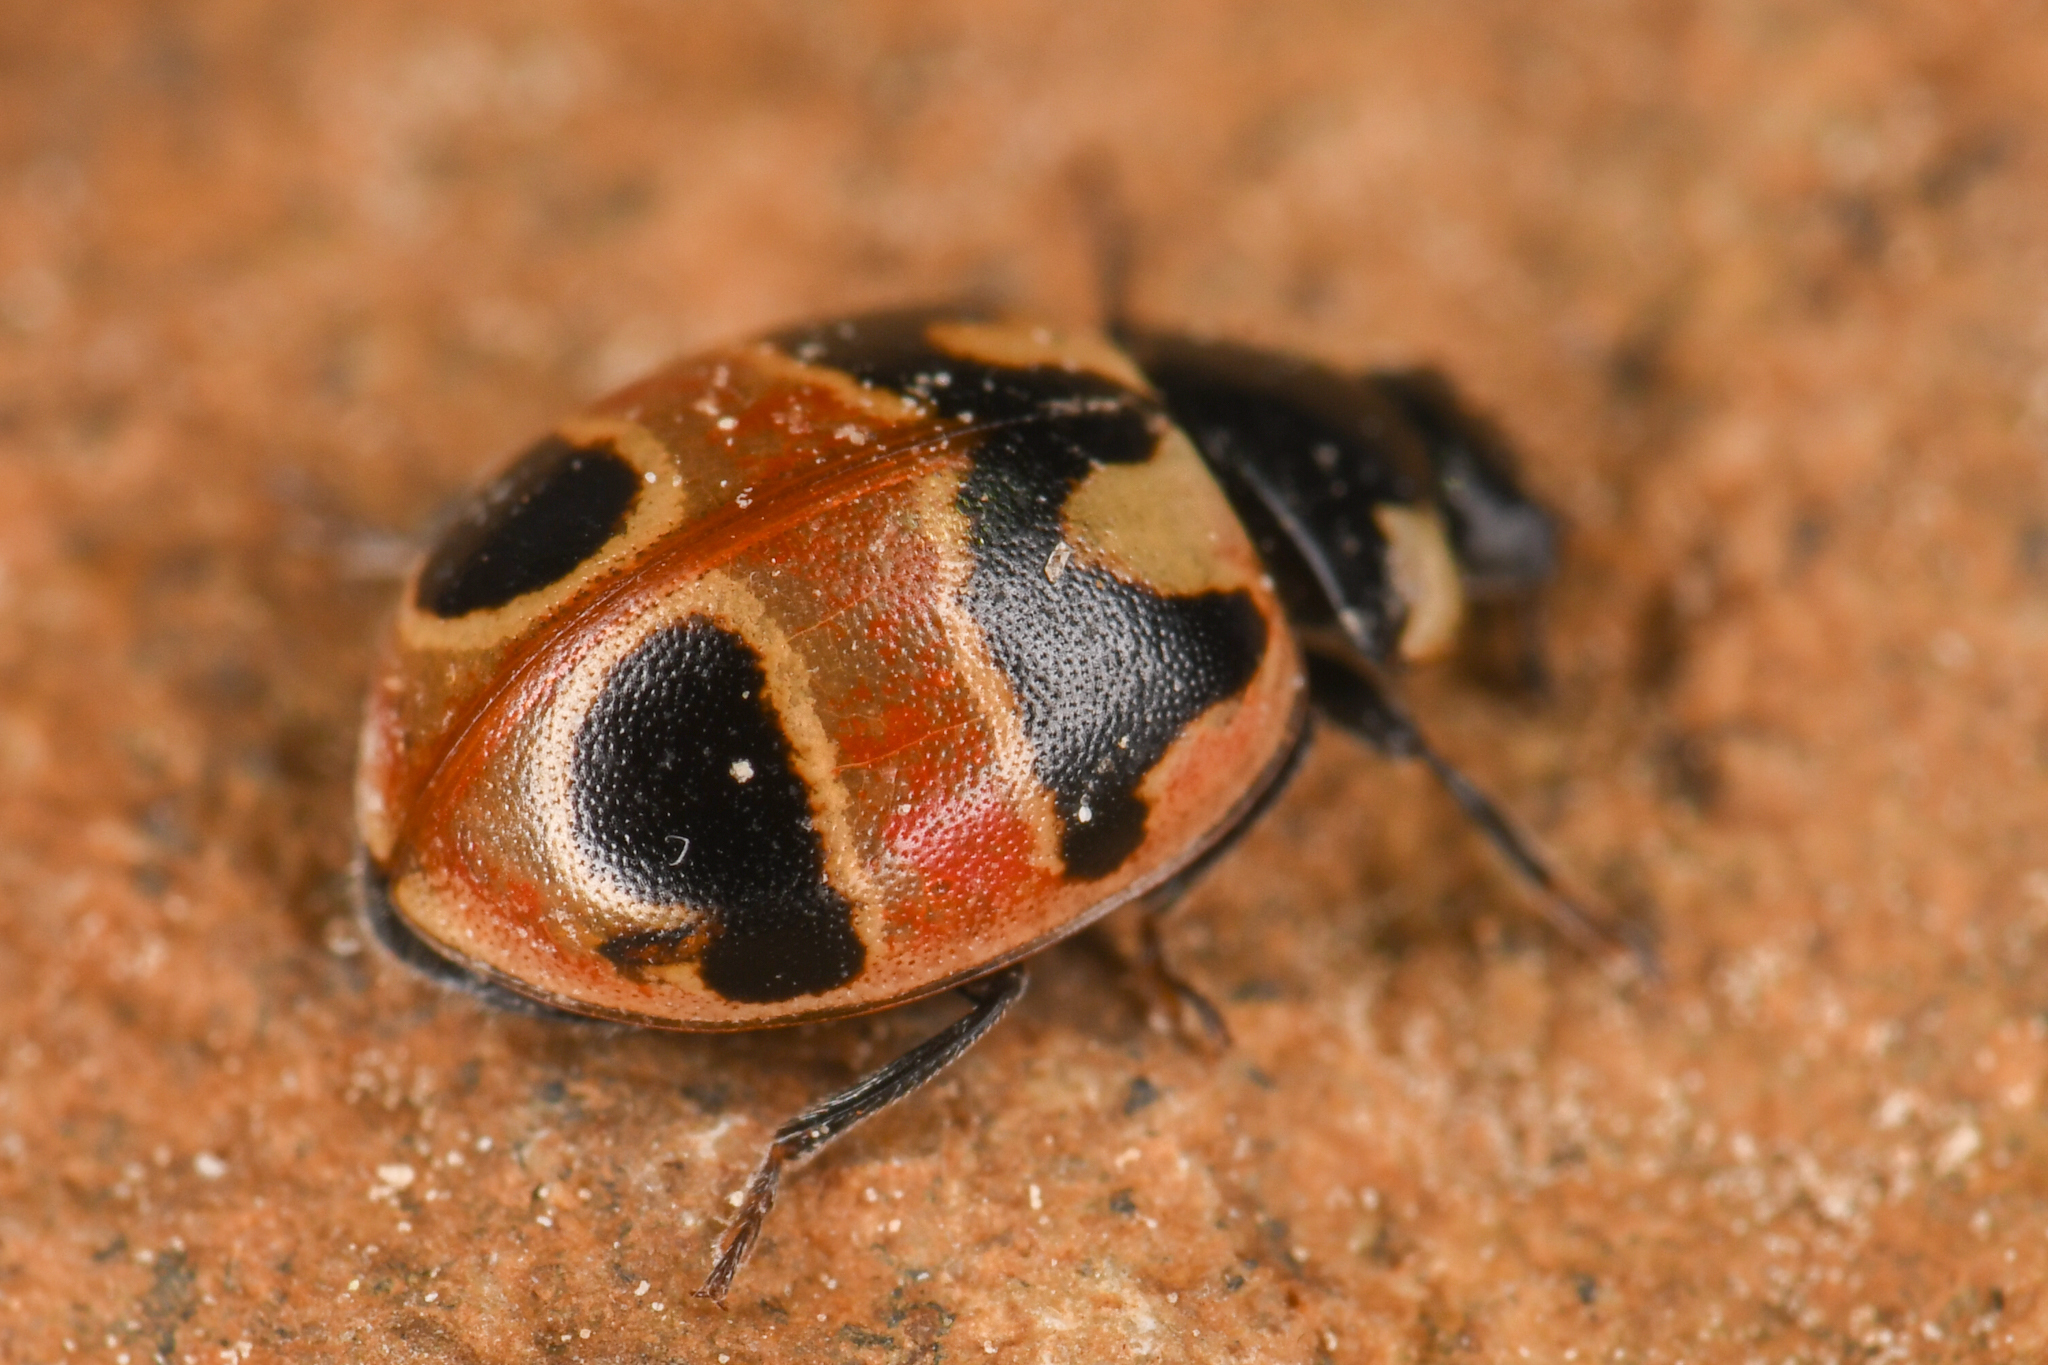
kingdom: Animalia
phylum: Arthropoda
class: Insecta
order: Coleoptera
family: Coccinellidae
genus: Coccinella
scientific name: Coccinella hieroglyphica
